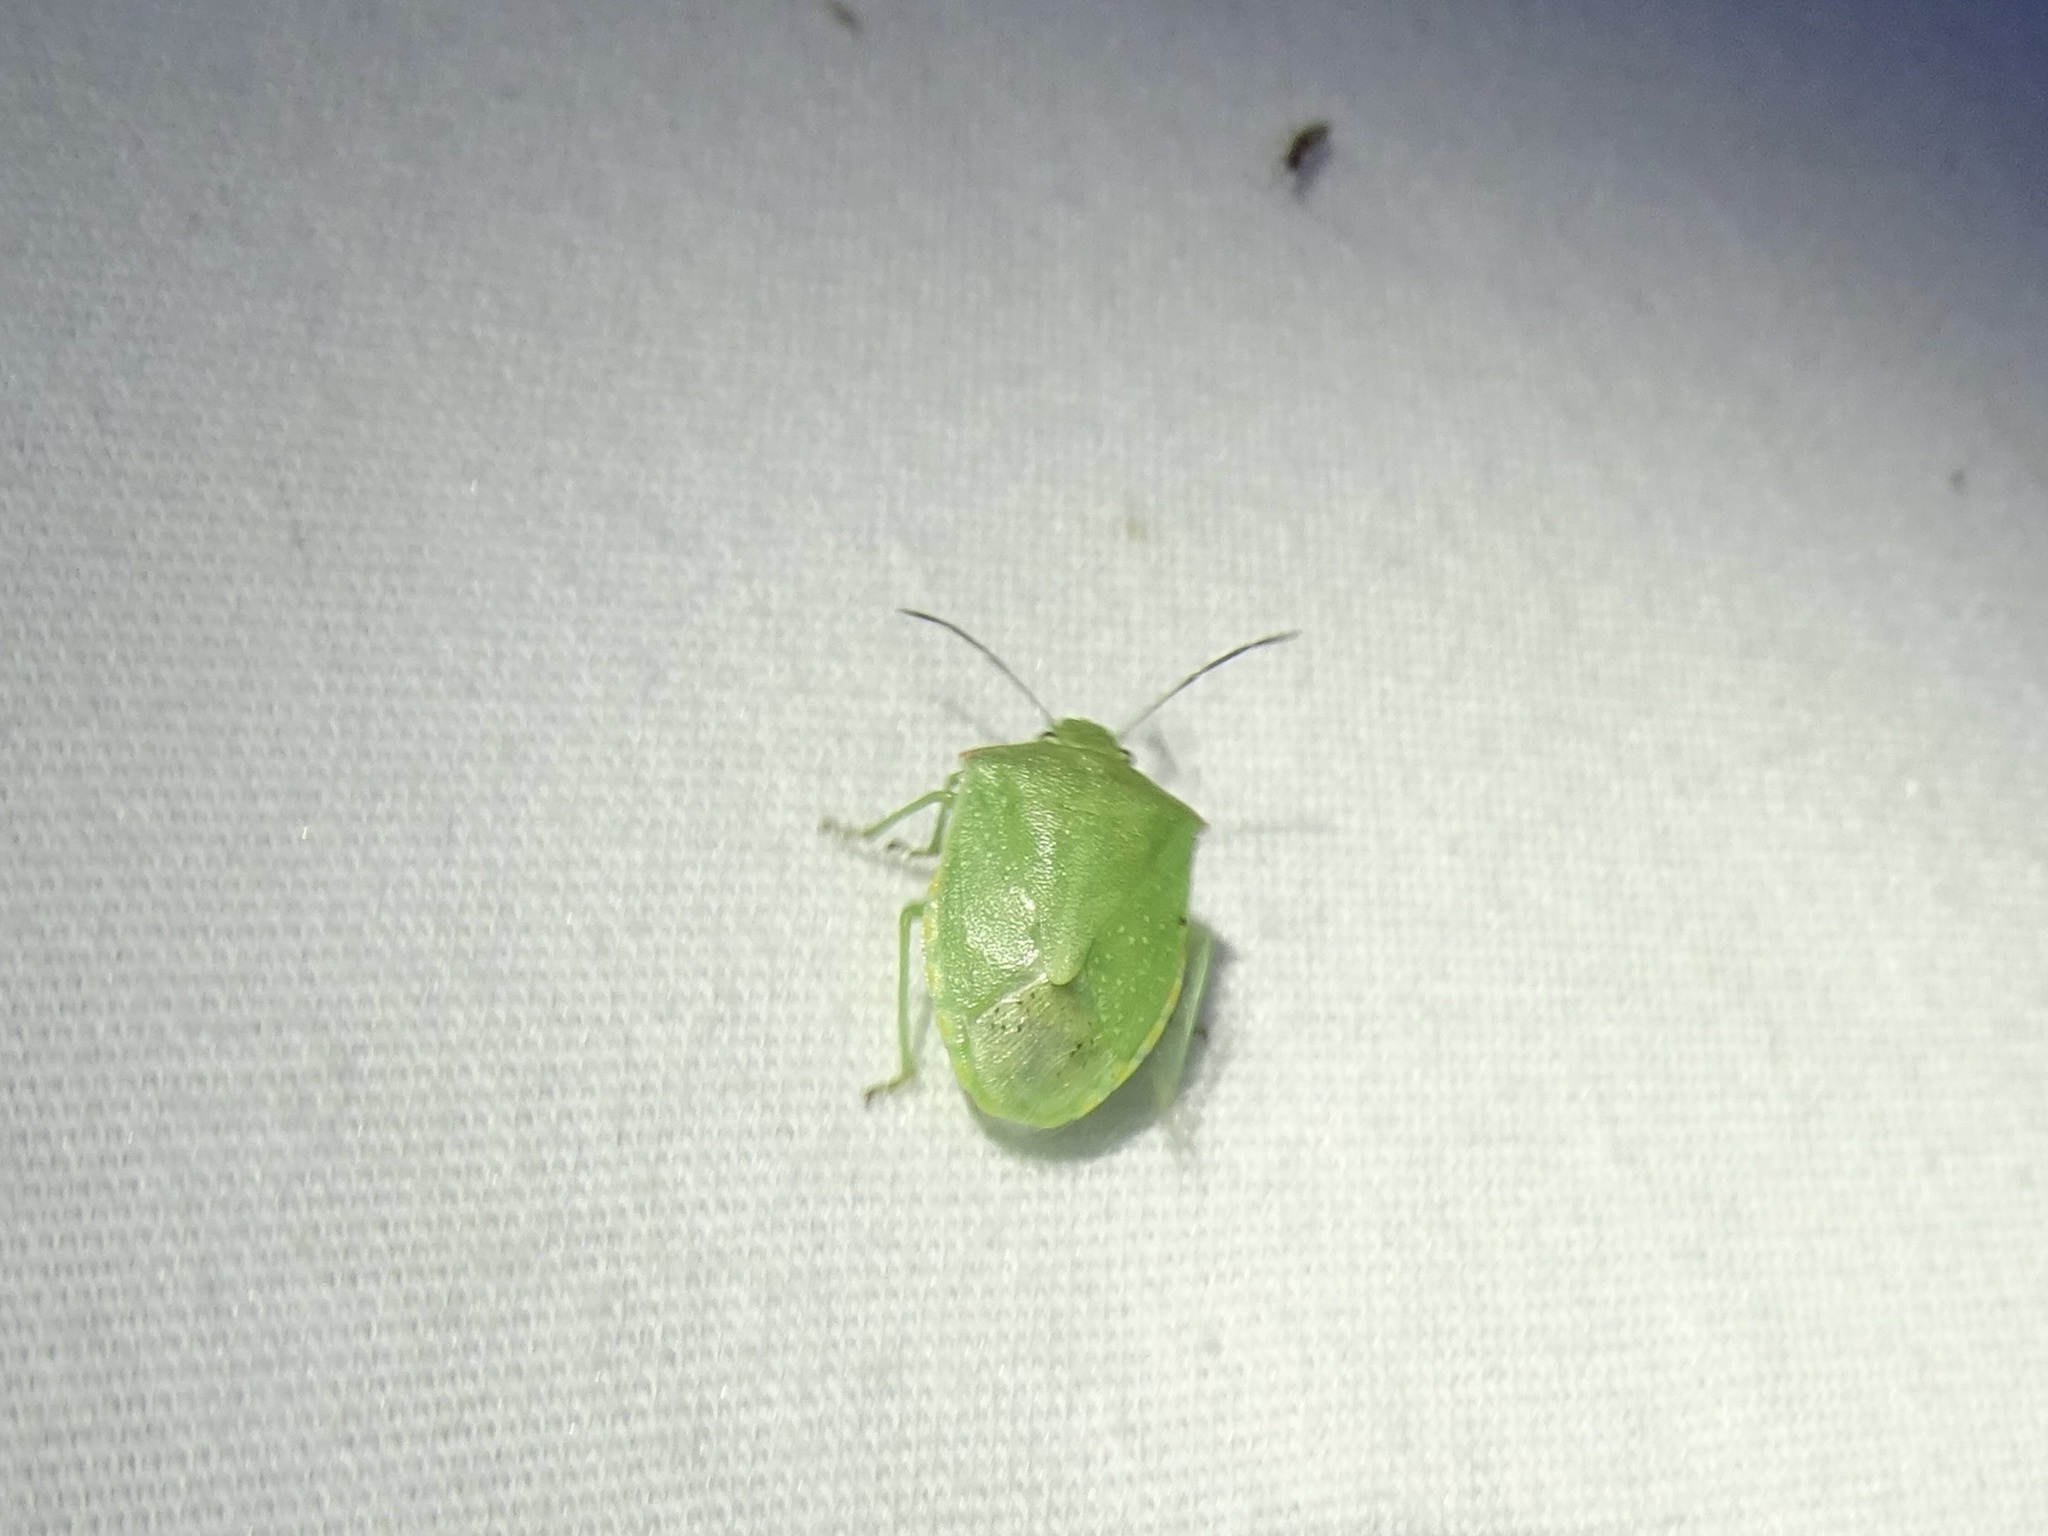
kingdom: Animalia
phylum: Arthropoda
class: Insecta
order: Hemiptera
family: Pentatomidae
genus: Thyanta
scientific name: Thyanta accerra
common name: Stink bug
